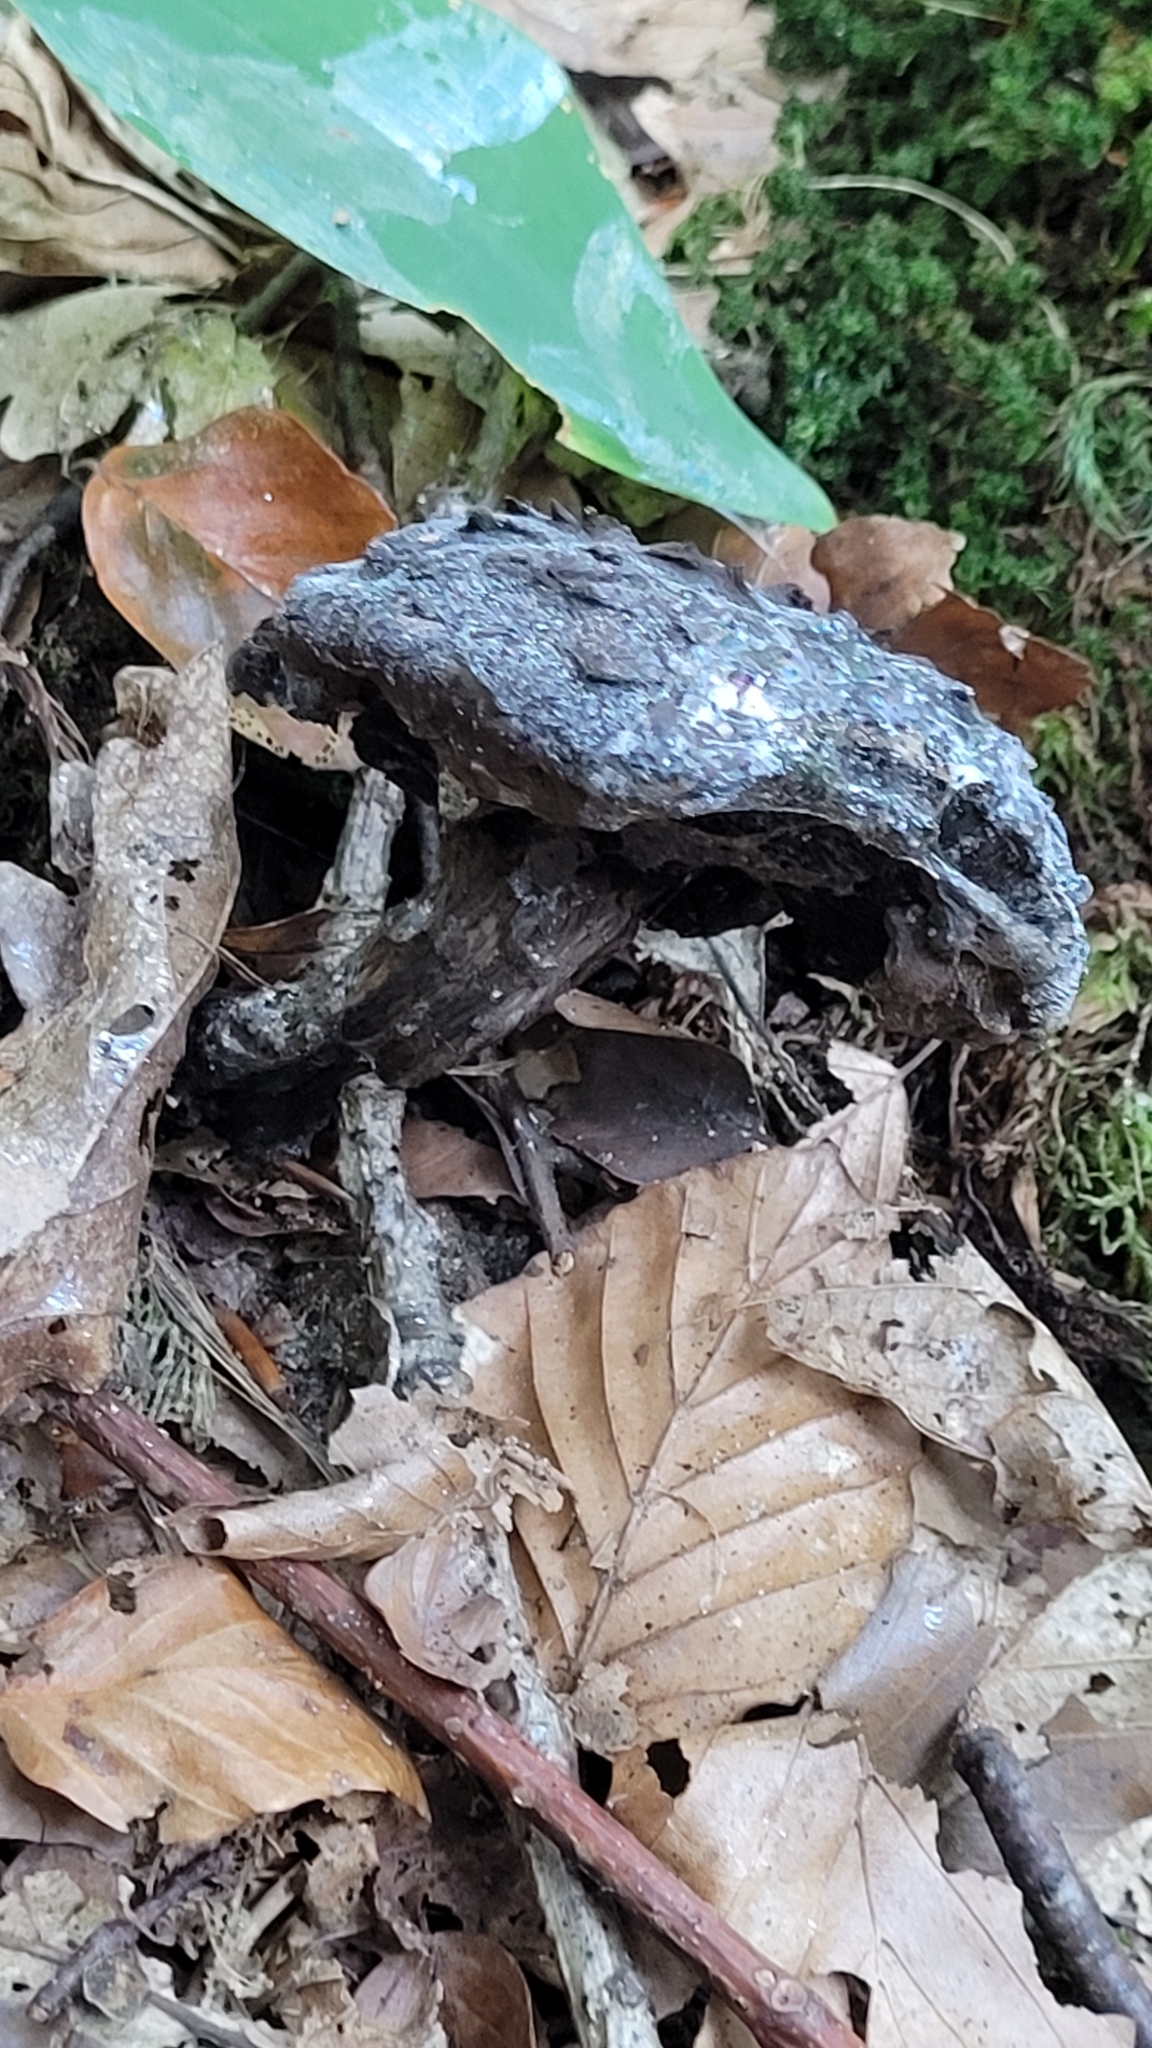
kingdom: Fungi
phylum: Basidiomycota
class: Agaricomycetes
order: Boletales
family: Boletaceae
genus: Strobilomyces
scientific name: Strobilomyces strobilaceus
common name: Old man of the woods
